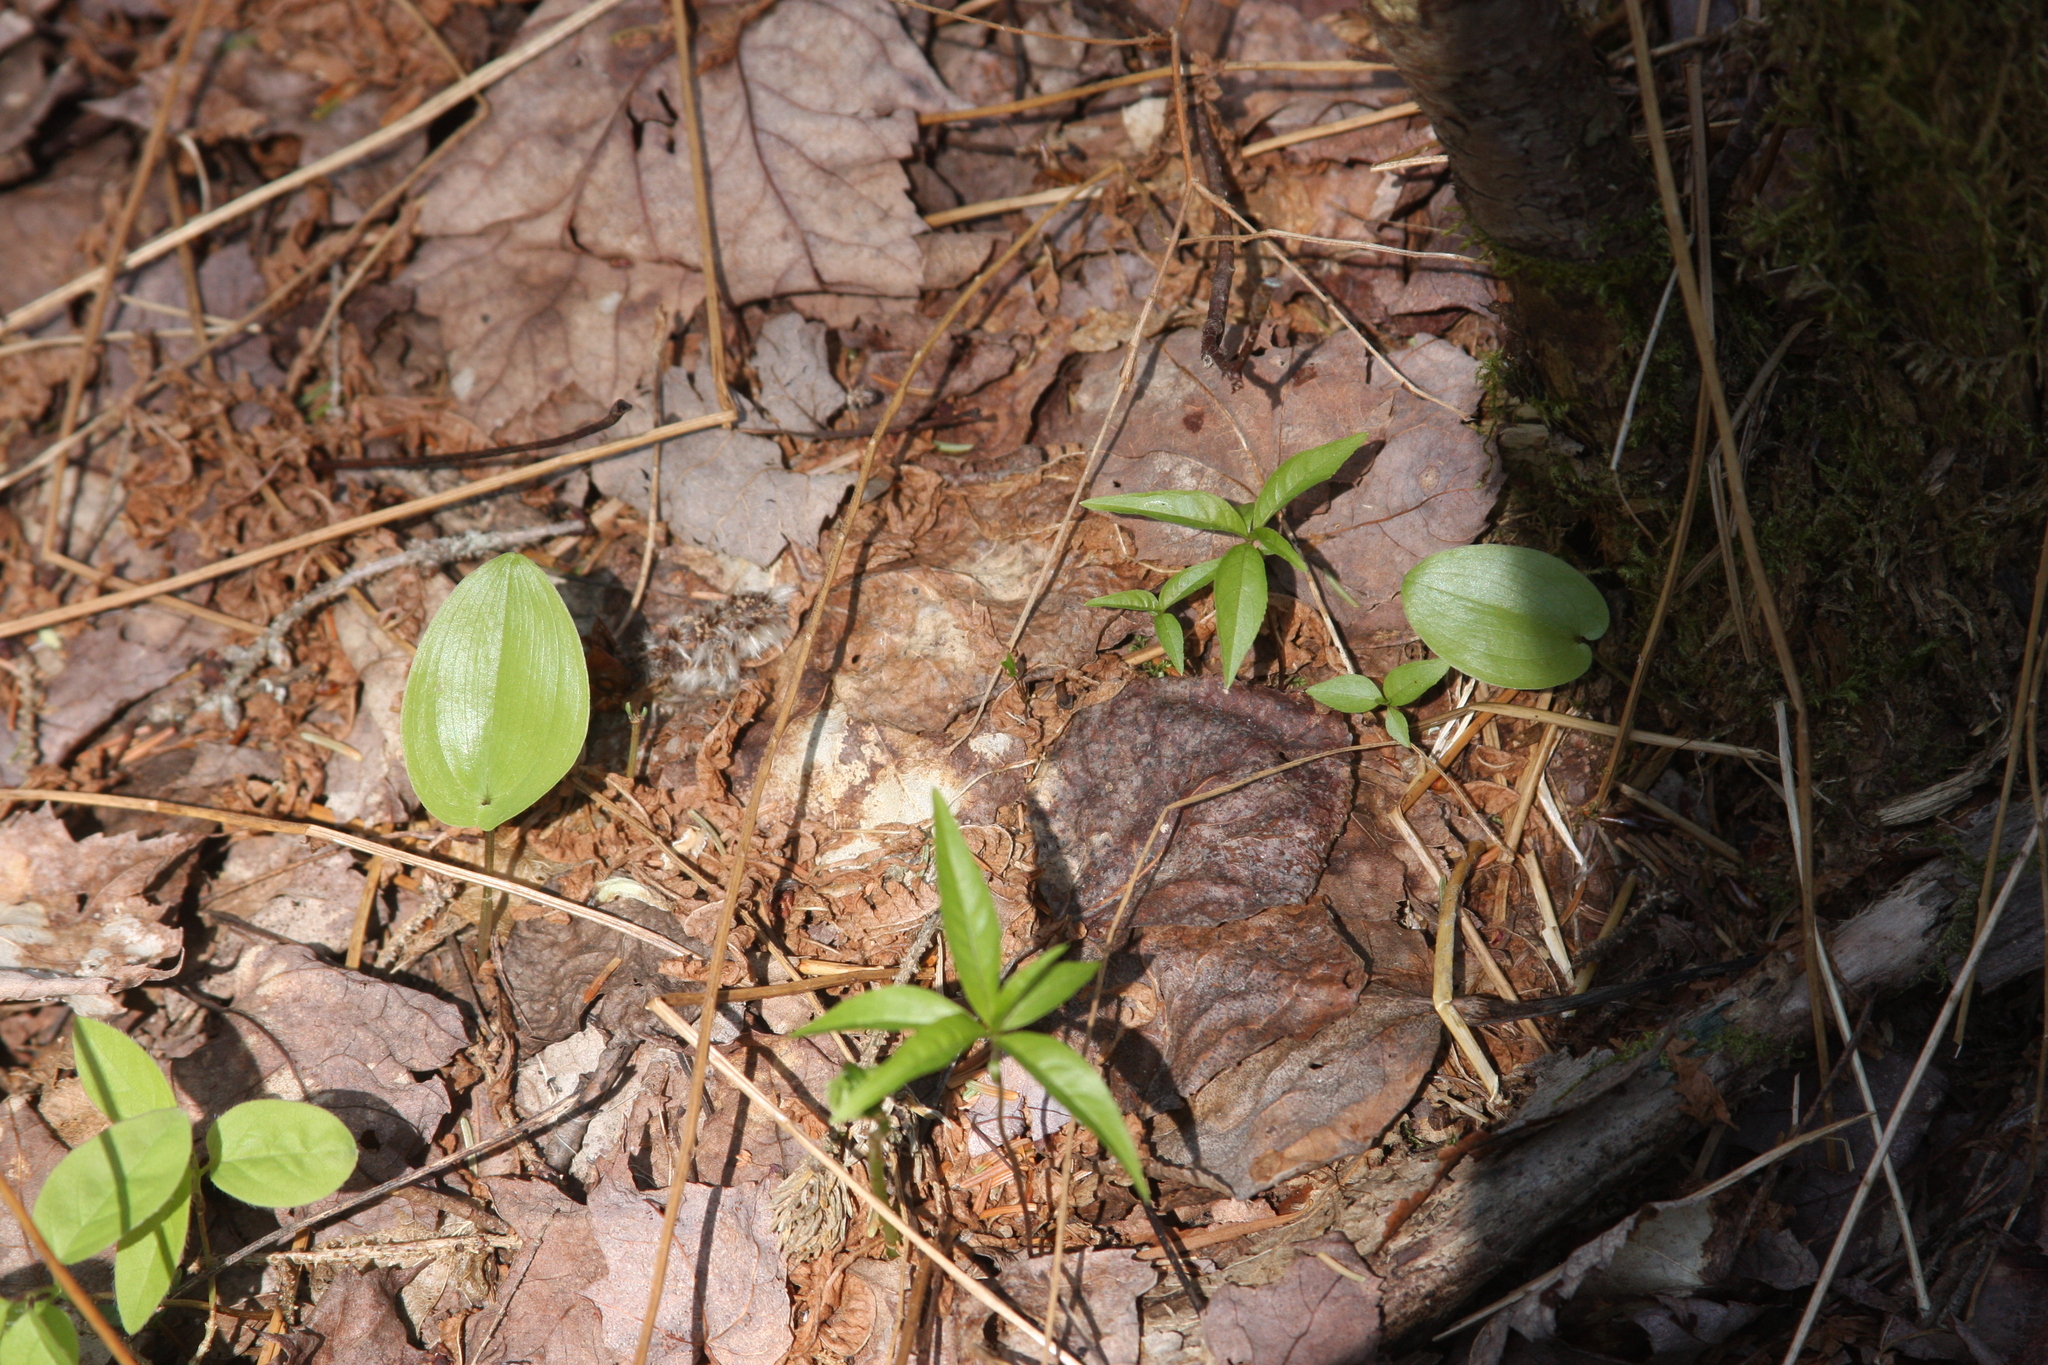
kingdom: Plantae
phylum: Tracheophyta
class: Liliopsida
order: Asparagales
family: Asparagaceae
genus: Maianthemum
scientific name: Maianthemum canadense
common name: False lily-of-the-valley
